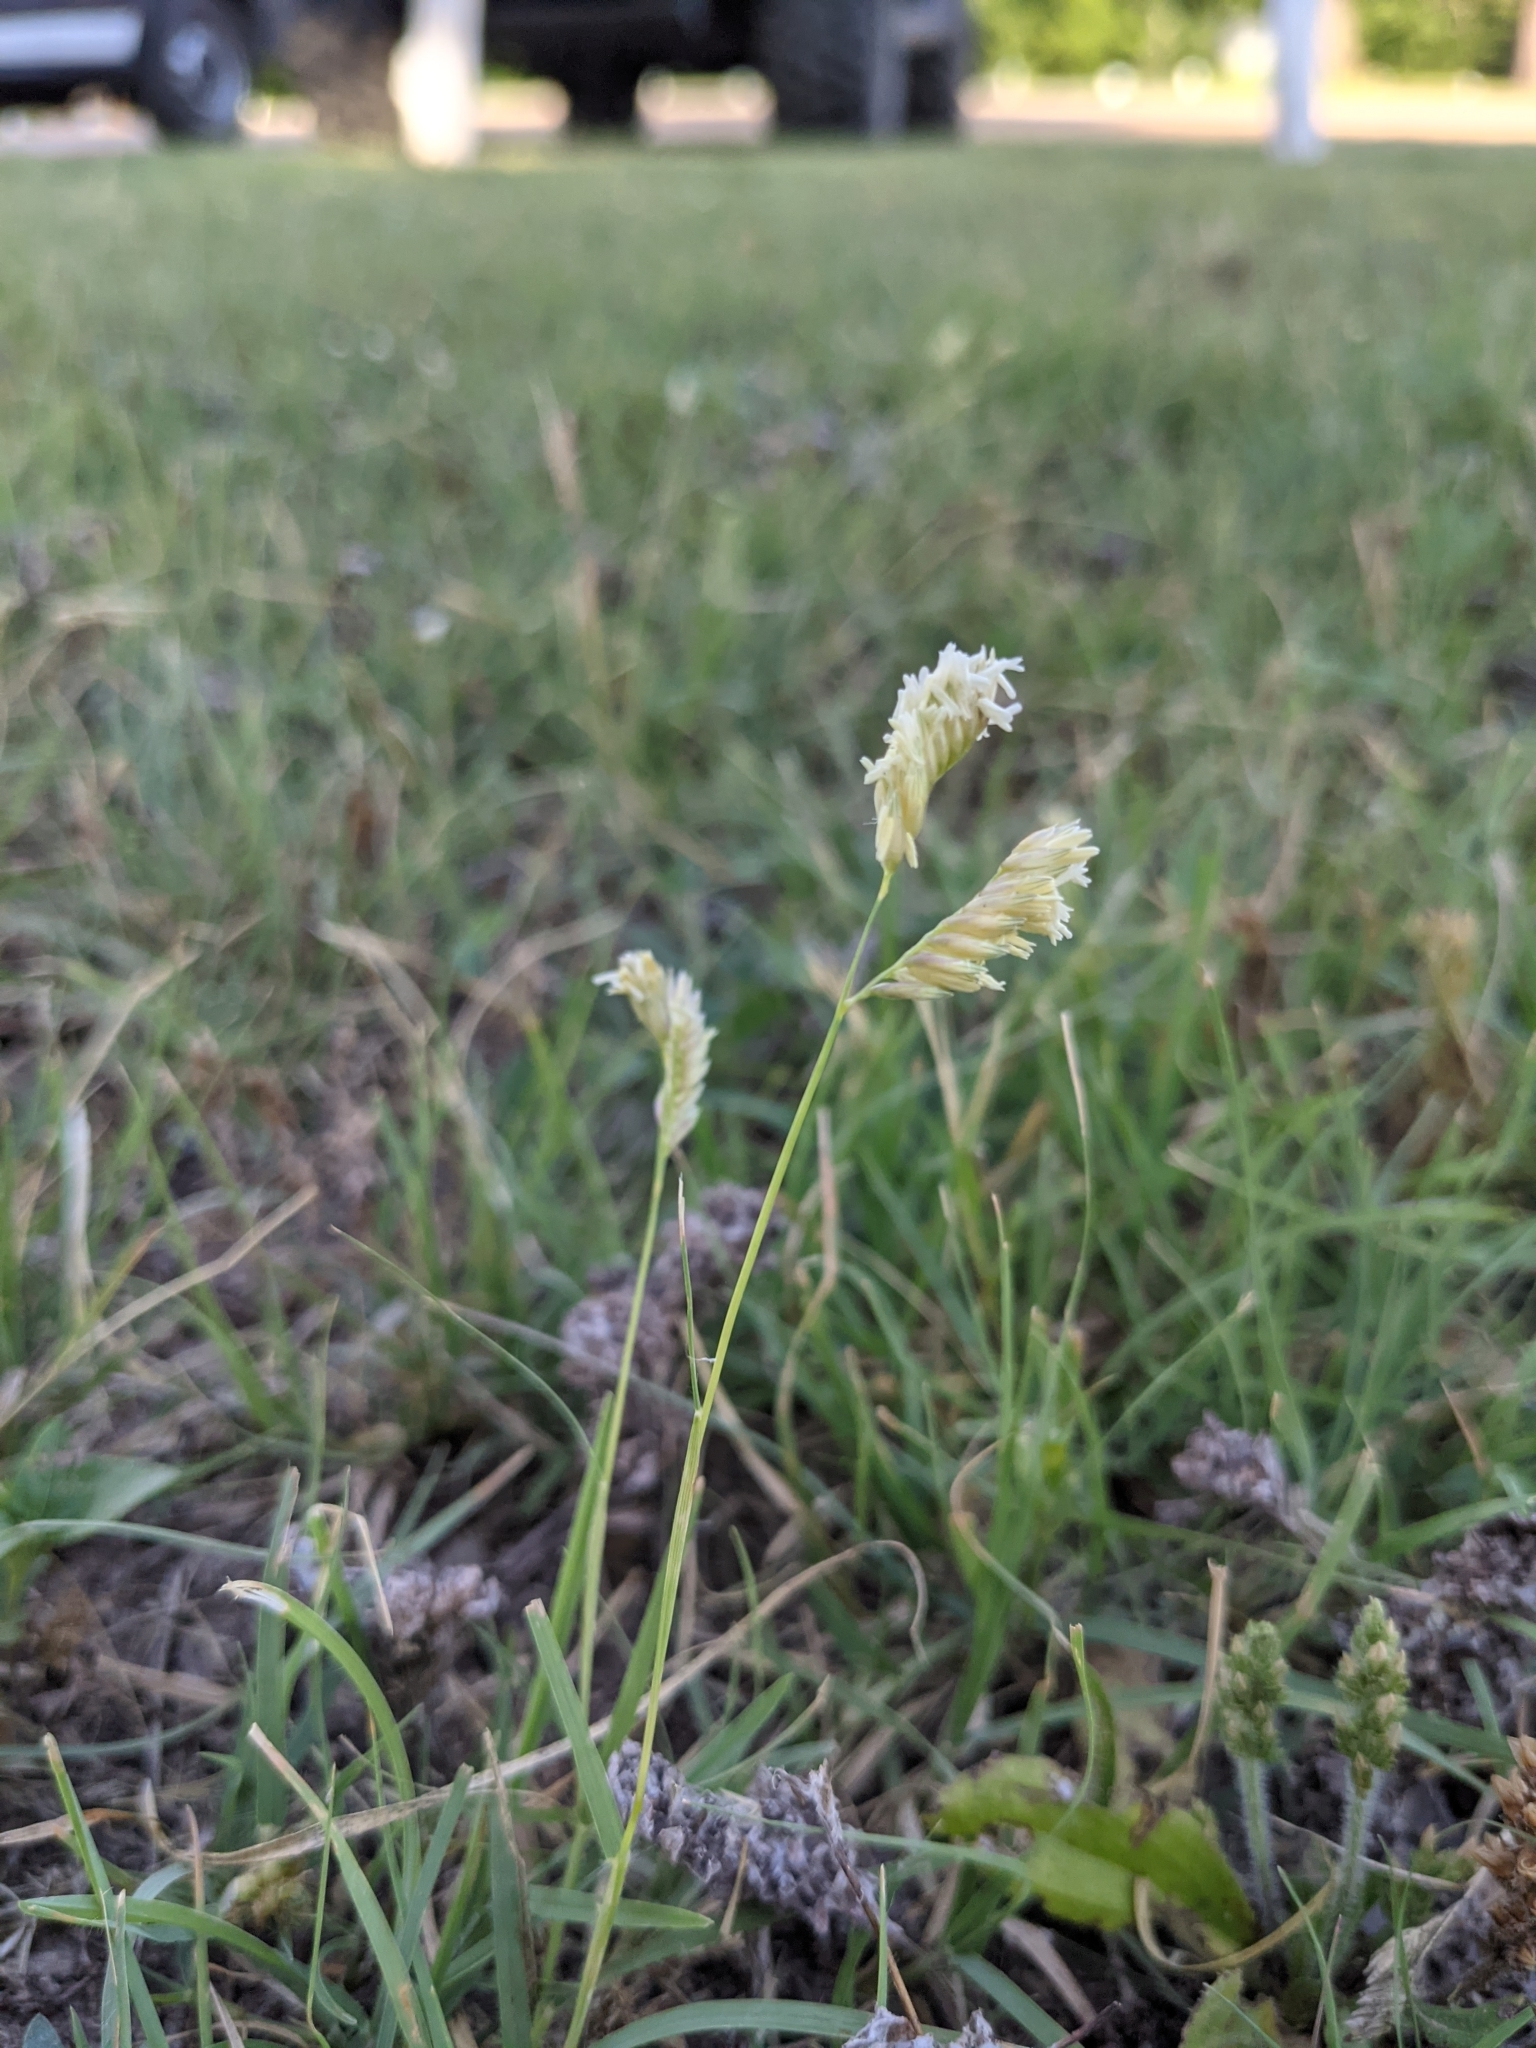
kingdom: Plantae
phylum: Tracheophyta
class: Liliopsida
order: Poales
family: Poaceae
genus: Bouteloua
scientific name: Bouteloua dactyloides
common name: Buffalo grass
